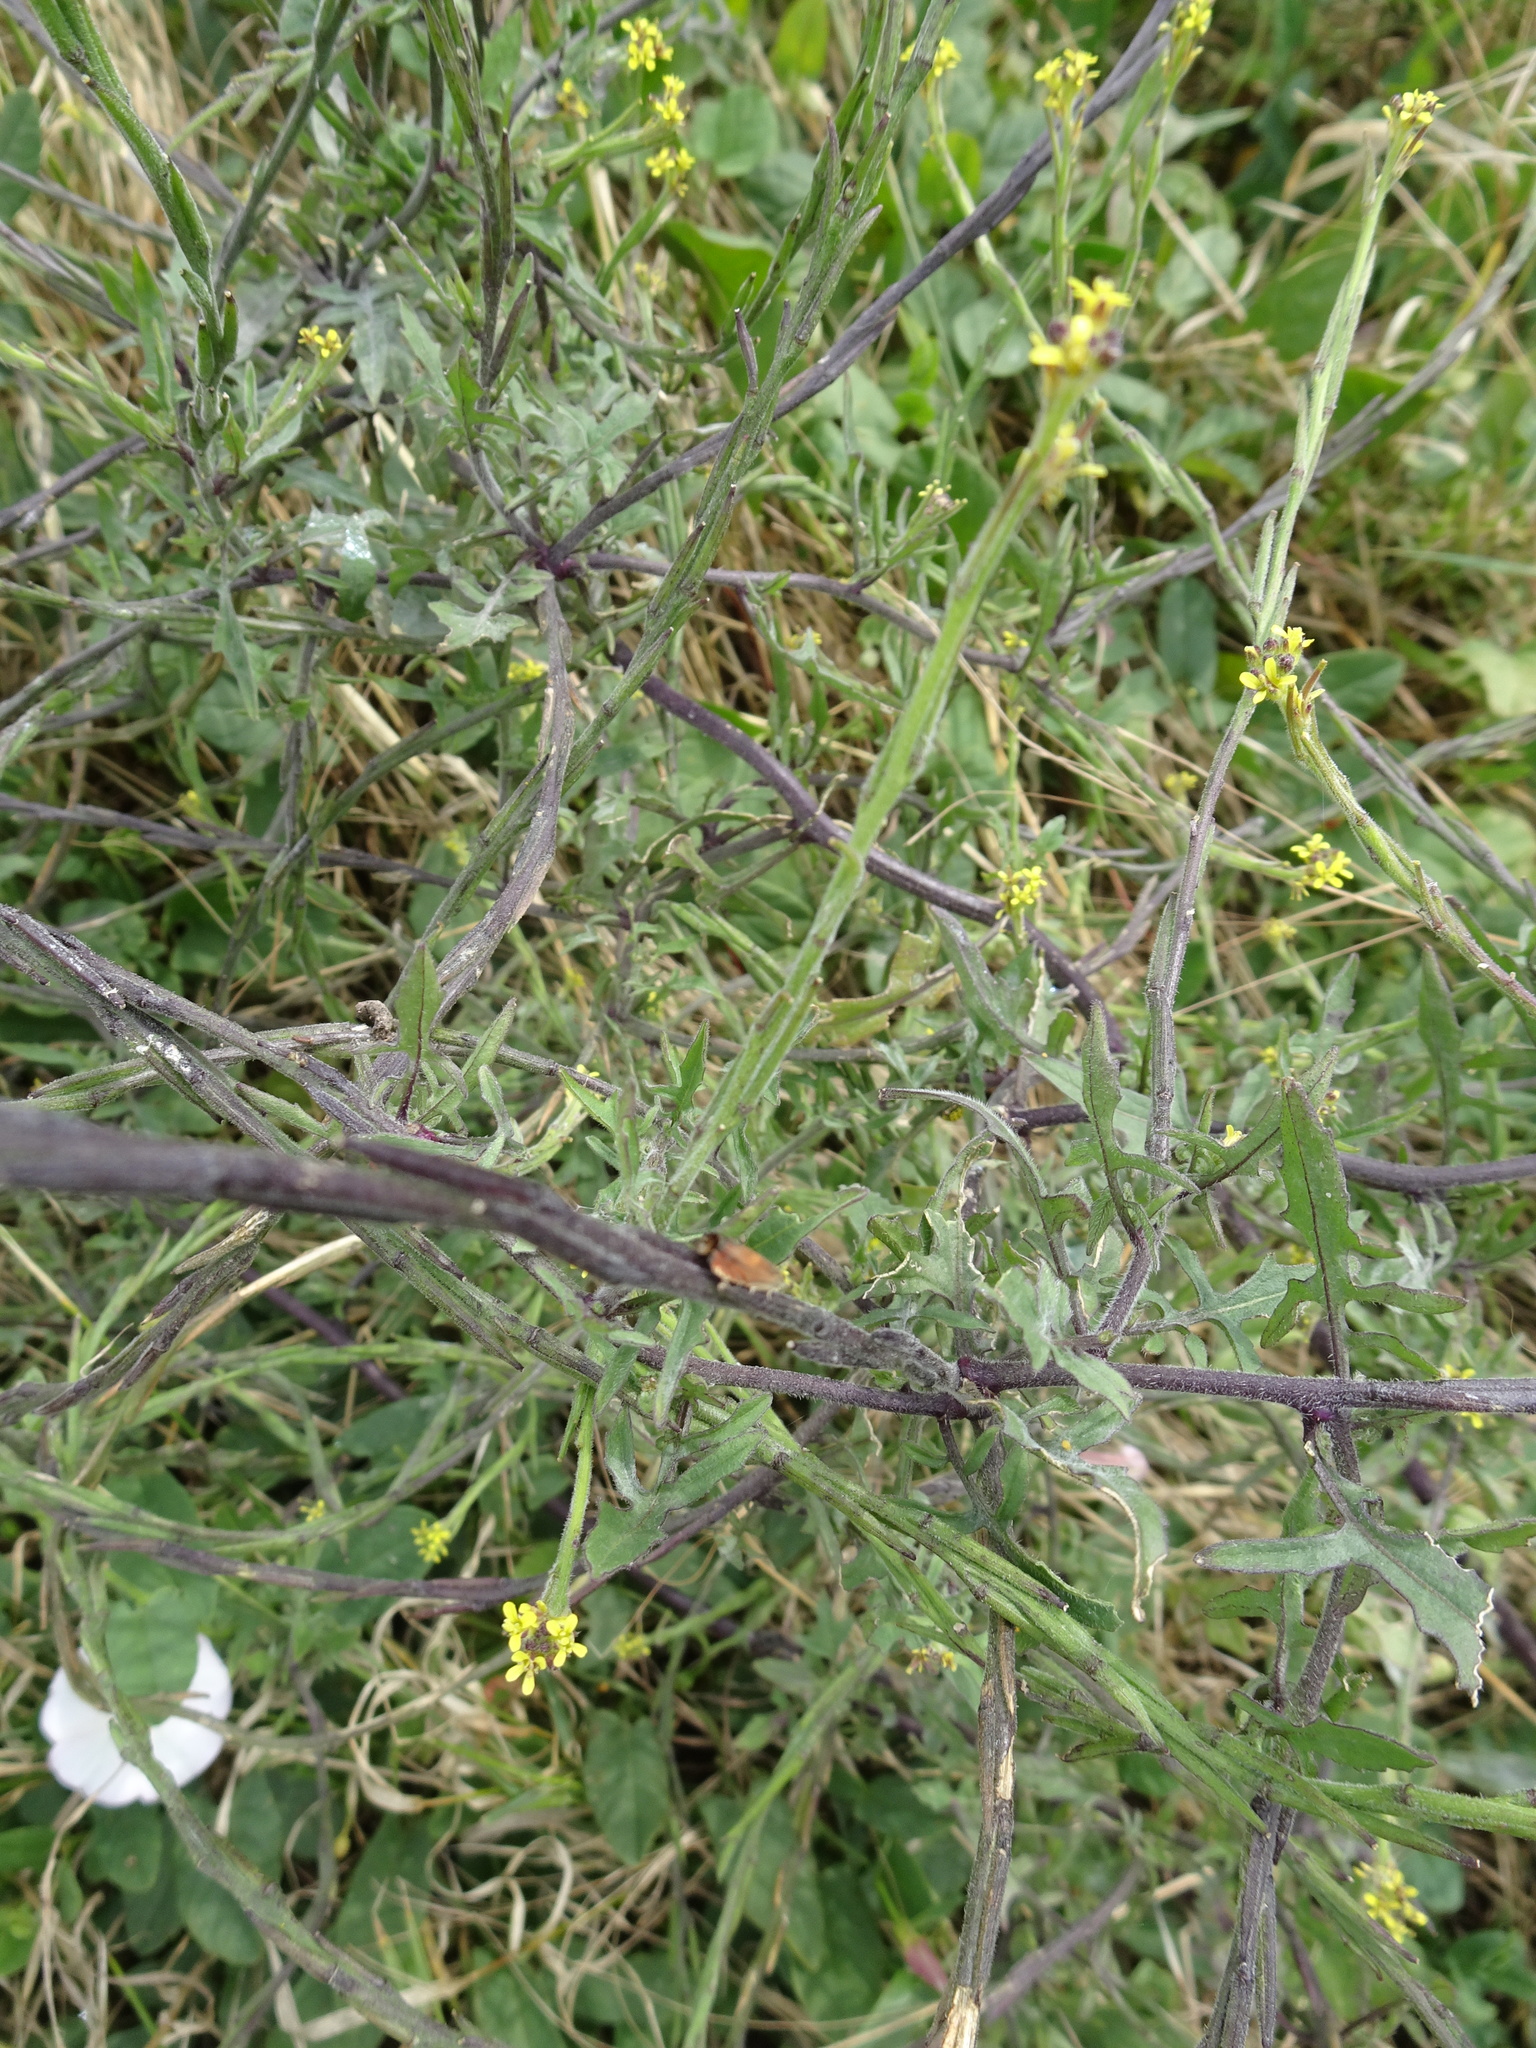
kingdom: Plantae
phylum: Tracheophyta
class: Magnoliopsida
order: Brassicales
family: Brassicaceae
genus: Sisymbrium
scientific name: Sisymbrium officinale
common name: Hedge mustard
